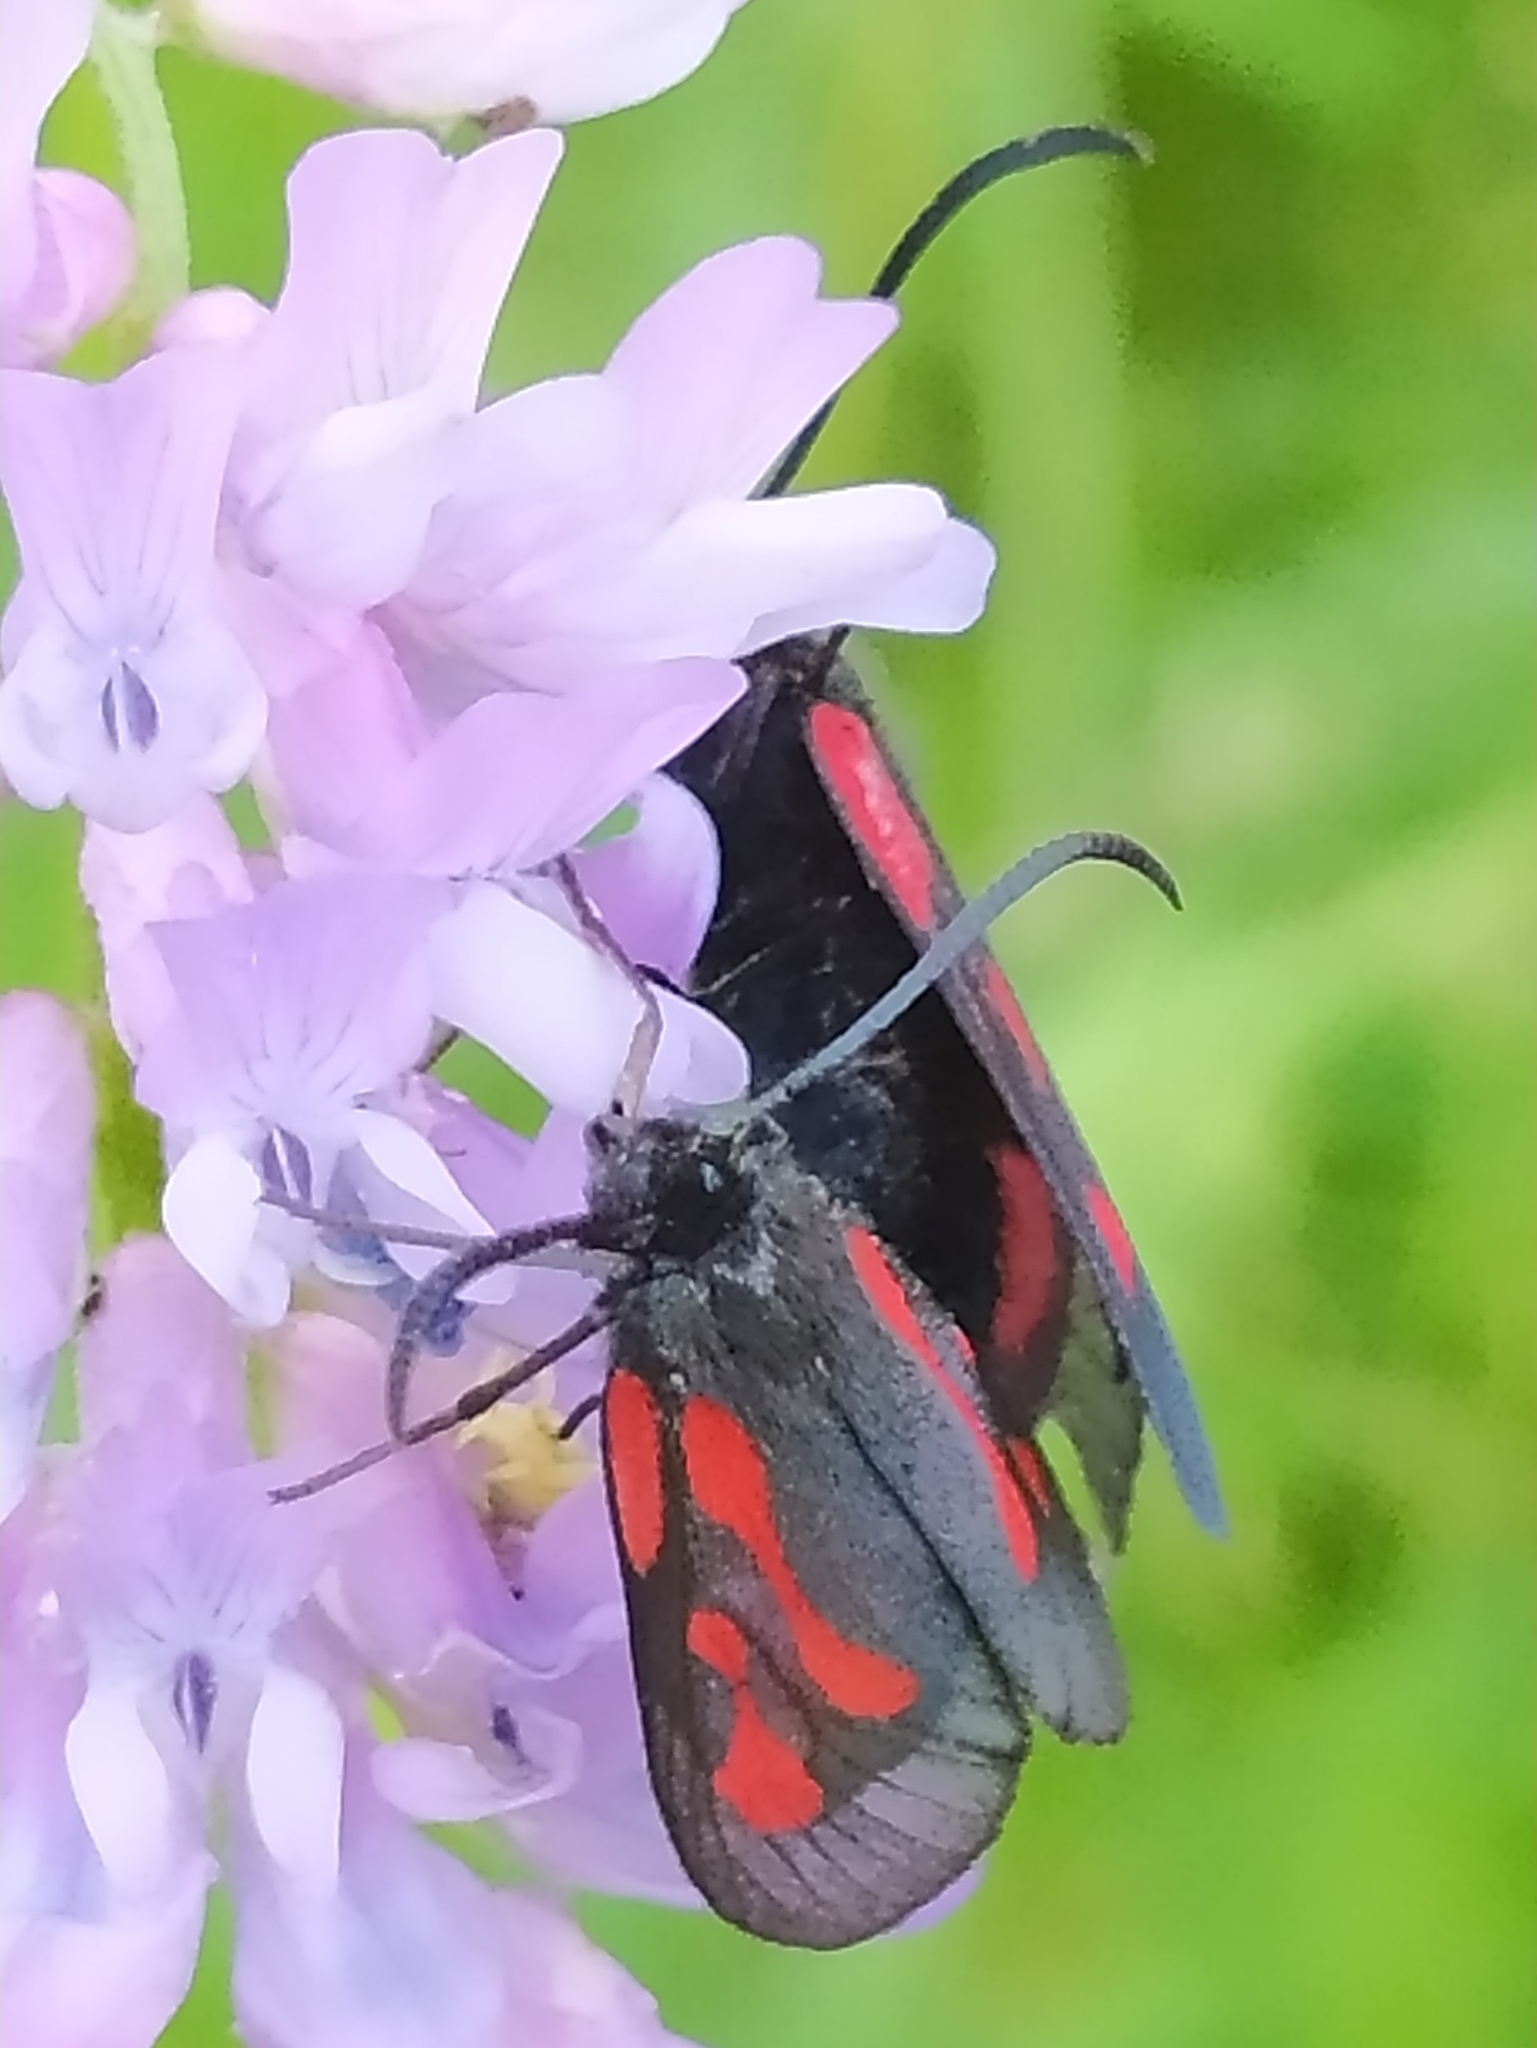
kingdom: Animalia
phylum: Arthropoda
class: Insecta
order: Lepidoptera
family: Zygaenidae
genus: Zygaena
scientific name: Zygaena osterodensis
